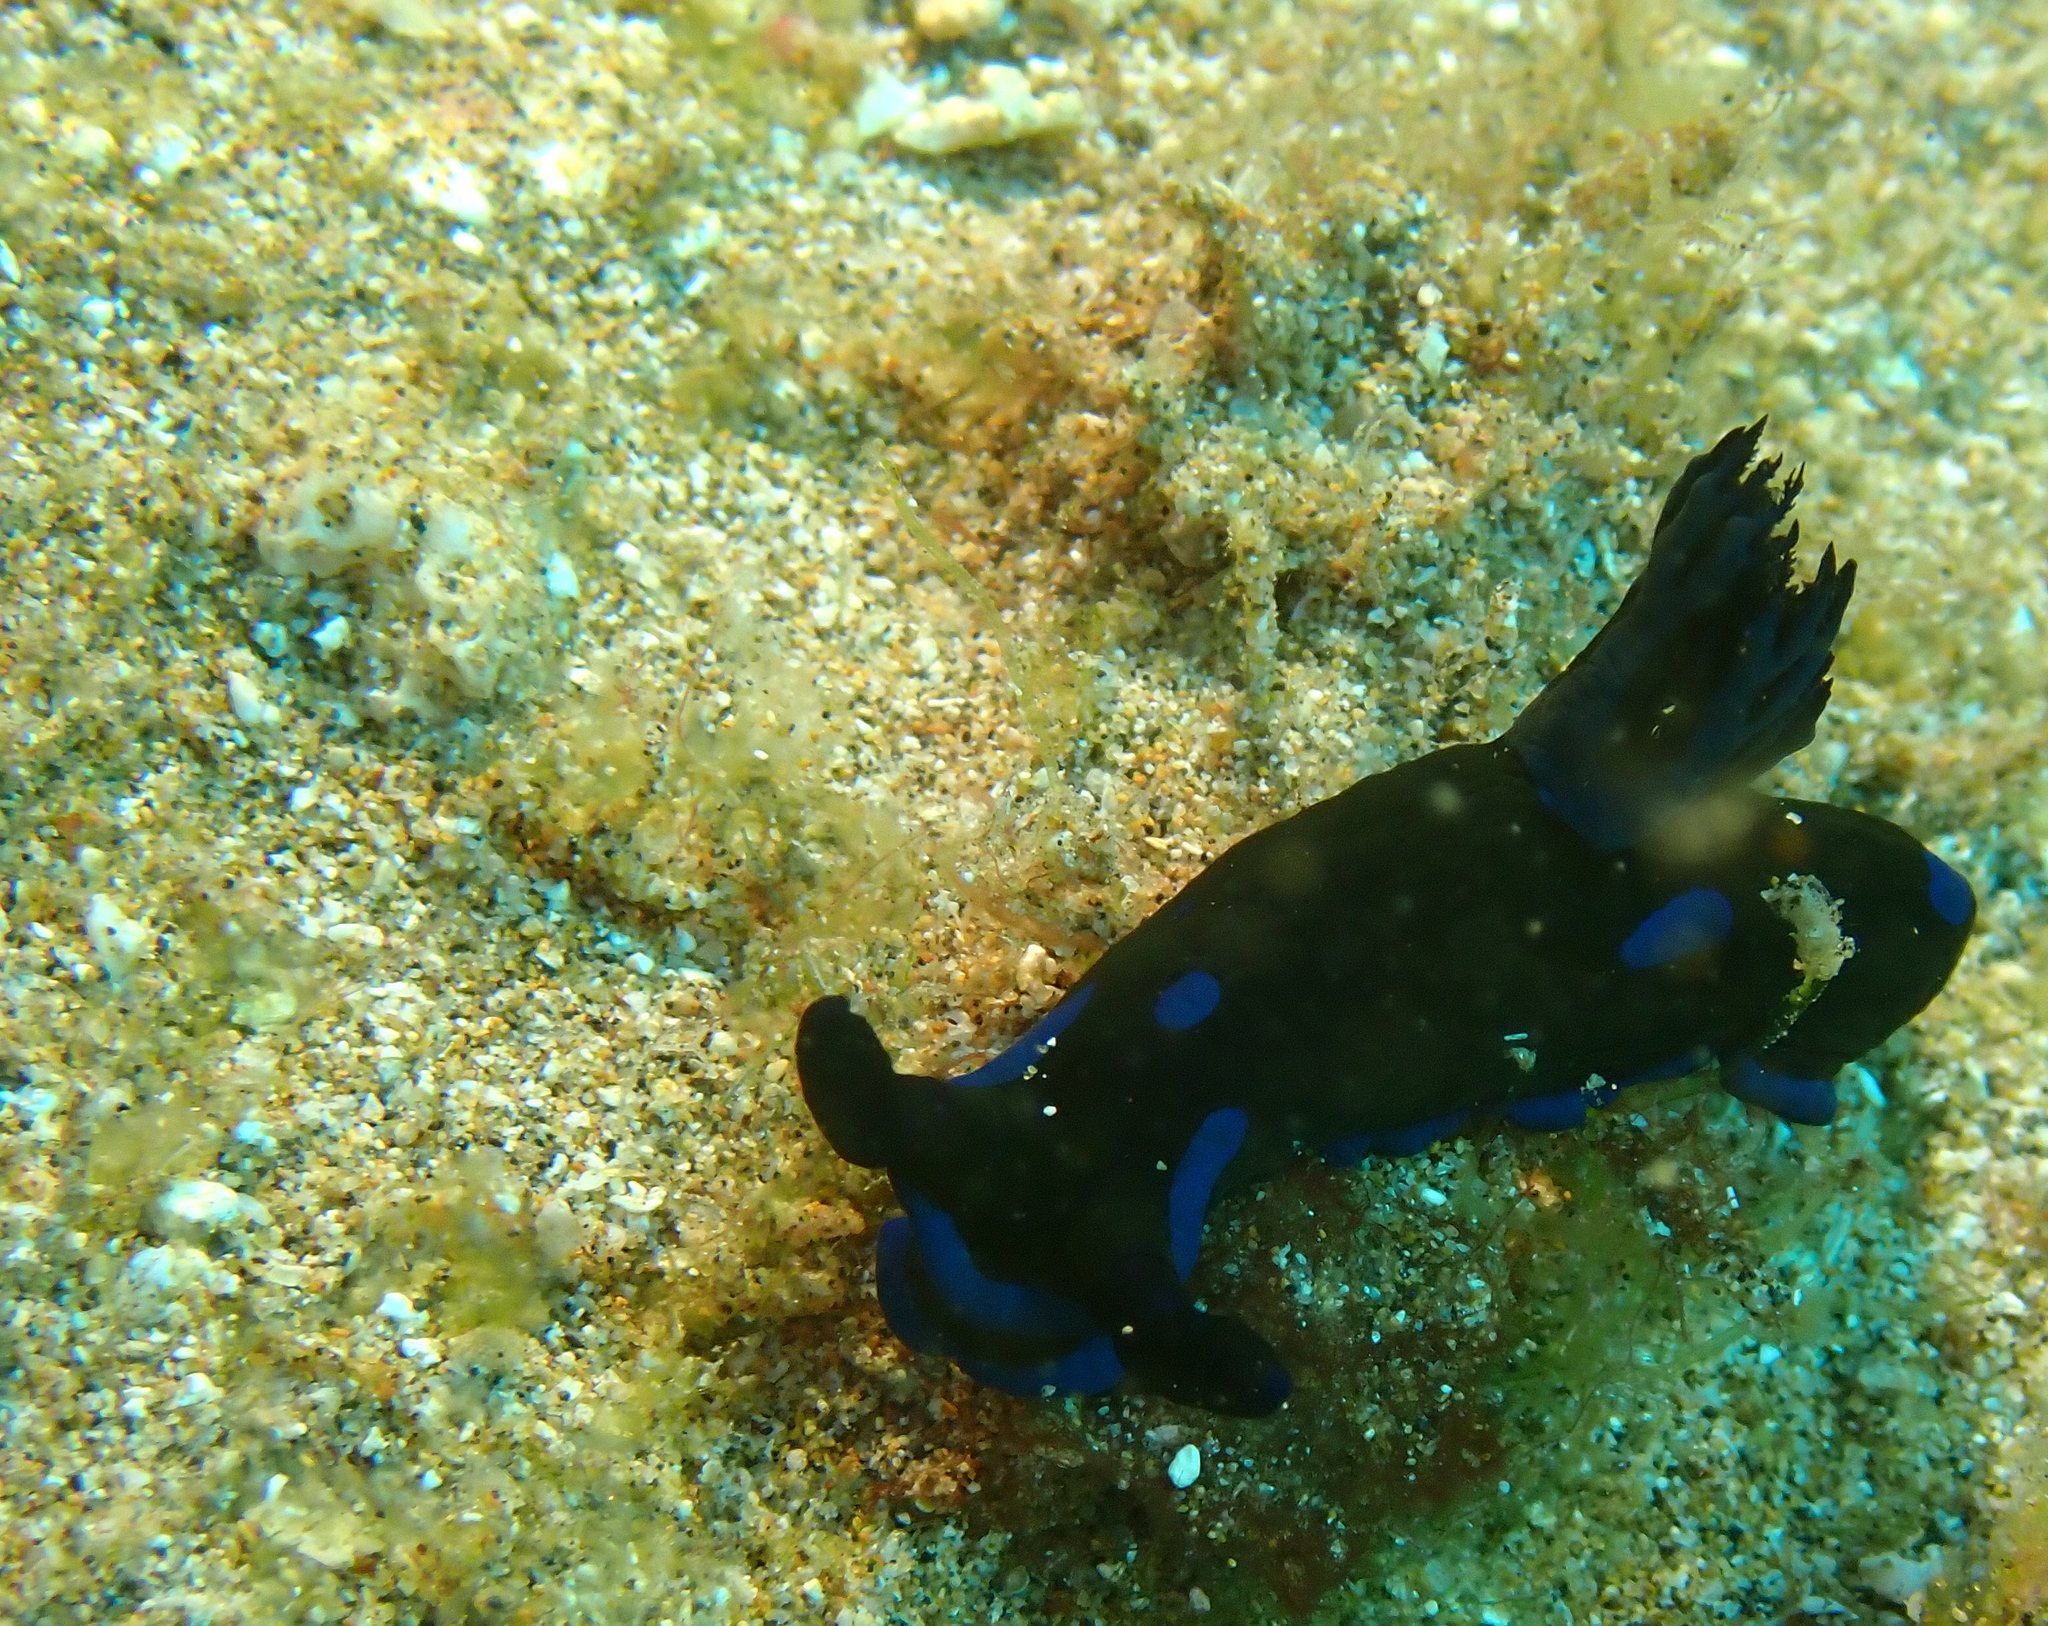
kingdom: Animalia
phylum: Mollusca
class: Gastropoda
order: Nudibranchia
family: Polyceridae
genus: Tambja
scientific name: Tambja morosa
